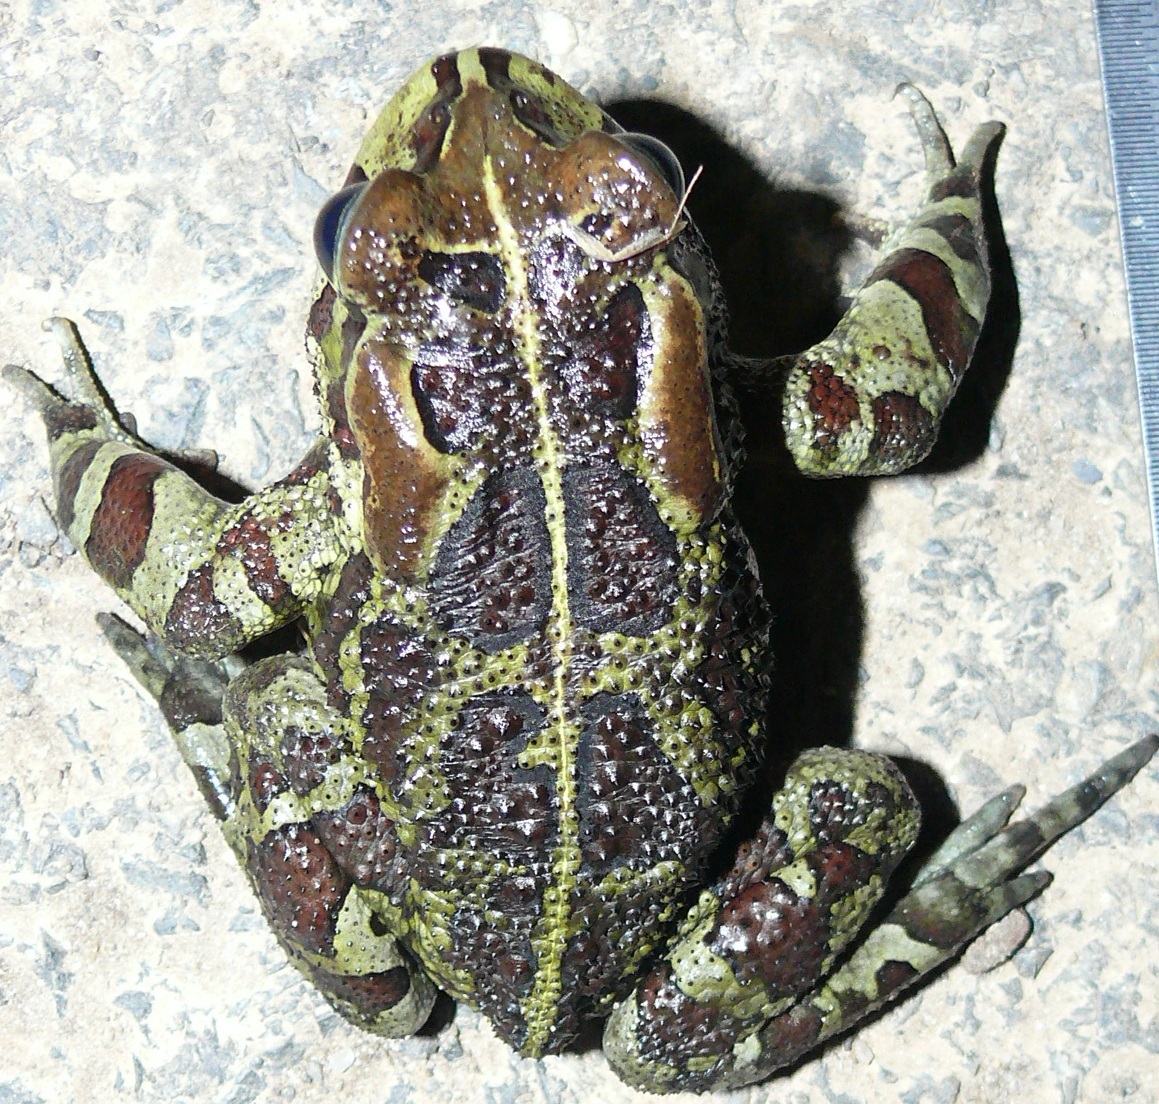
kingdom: Animalia
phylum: Chordata
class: Amphibia
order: Anura
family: Bufonidae
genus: Sclerophrys
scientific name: Sclerophrys pantherina
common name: Panther toad
